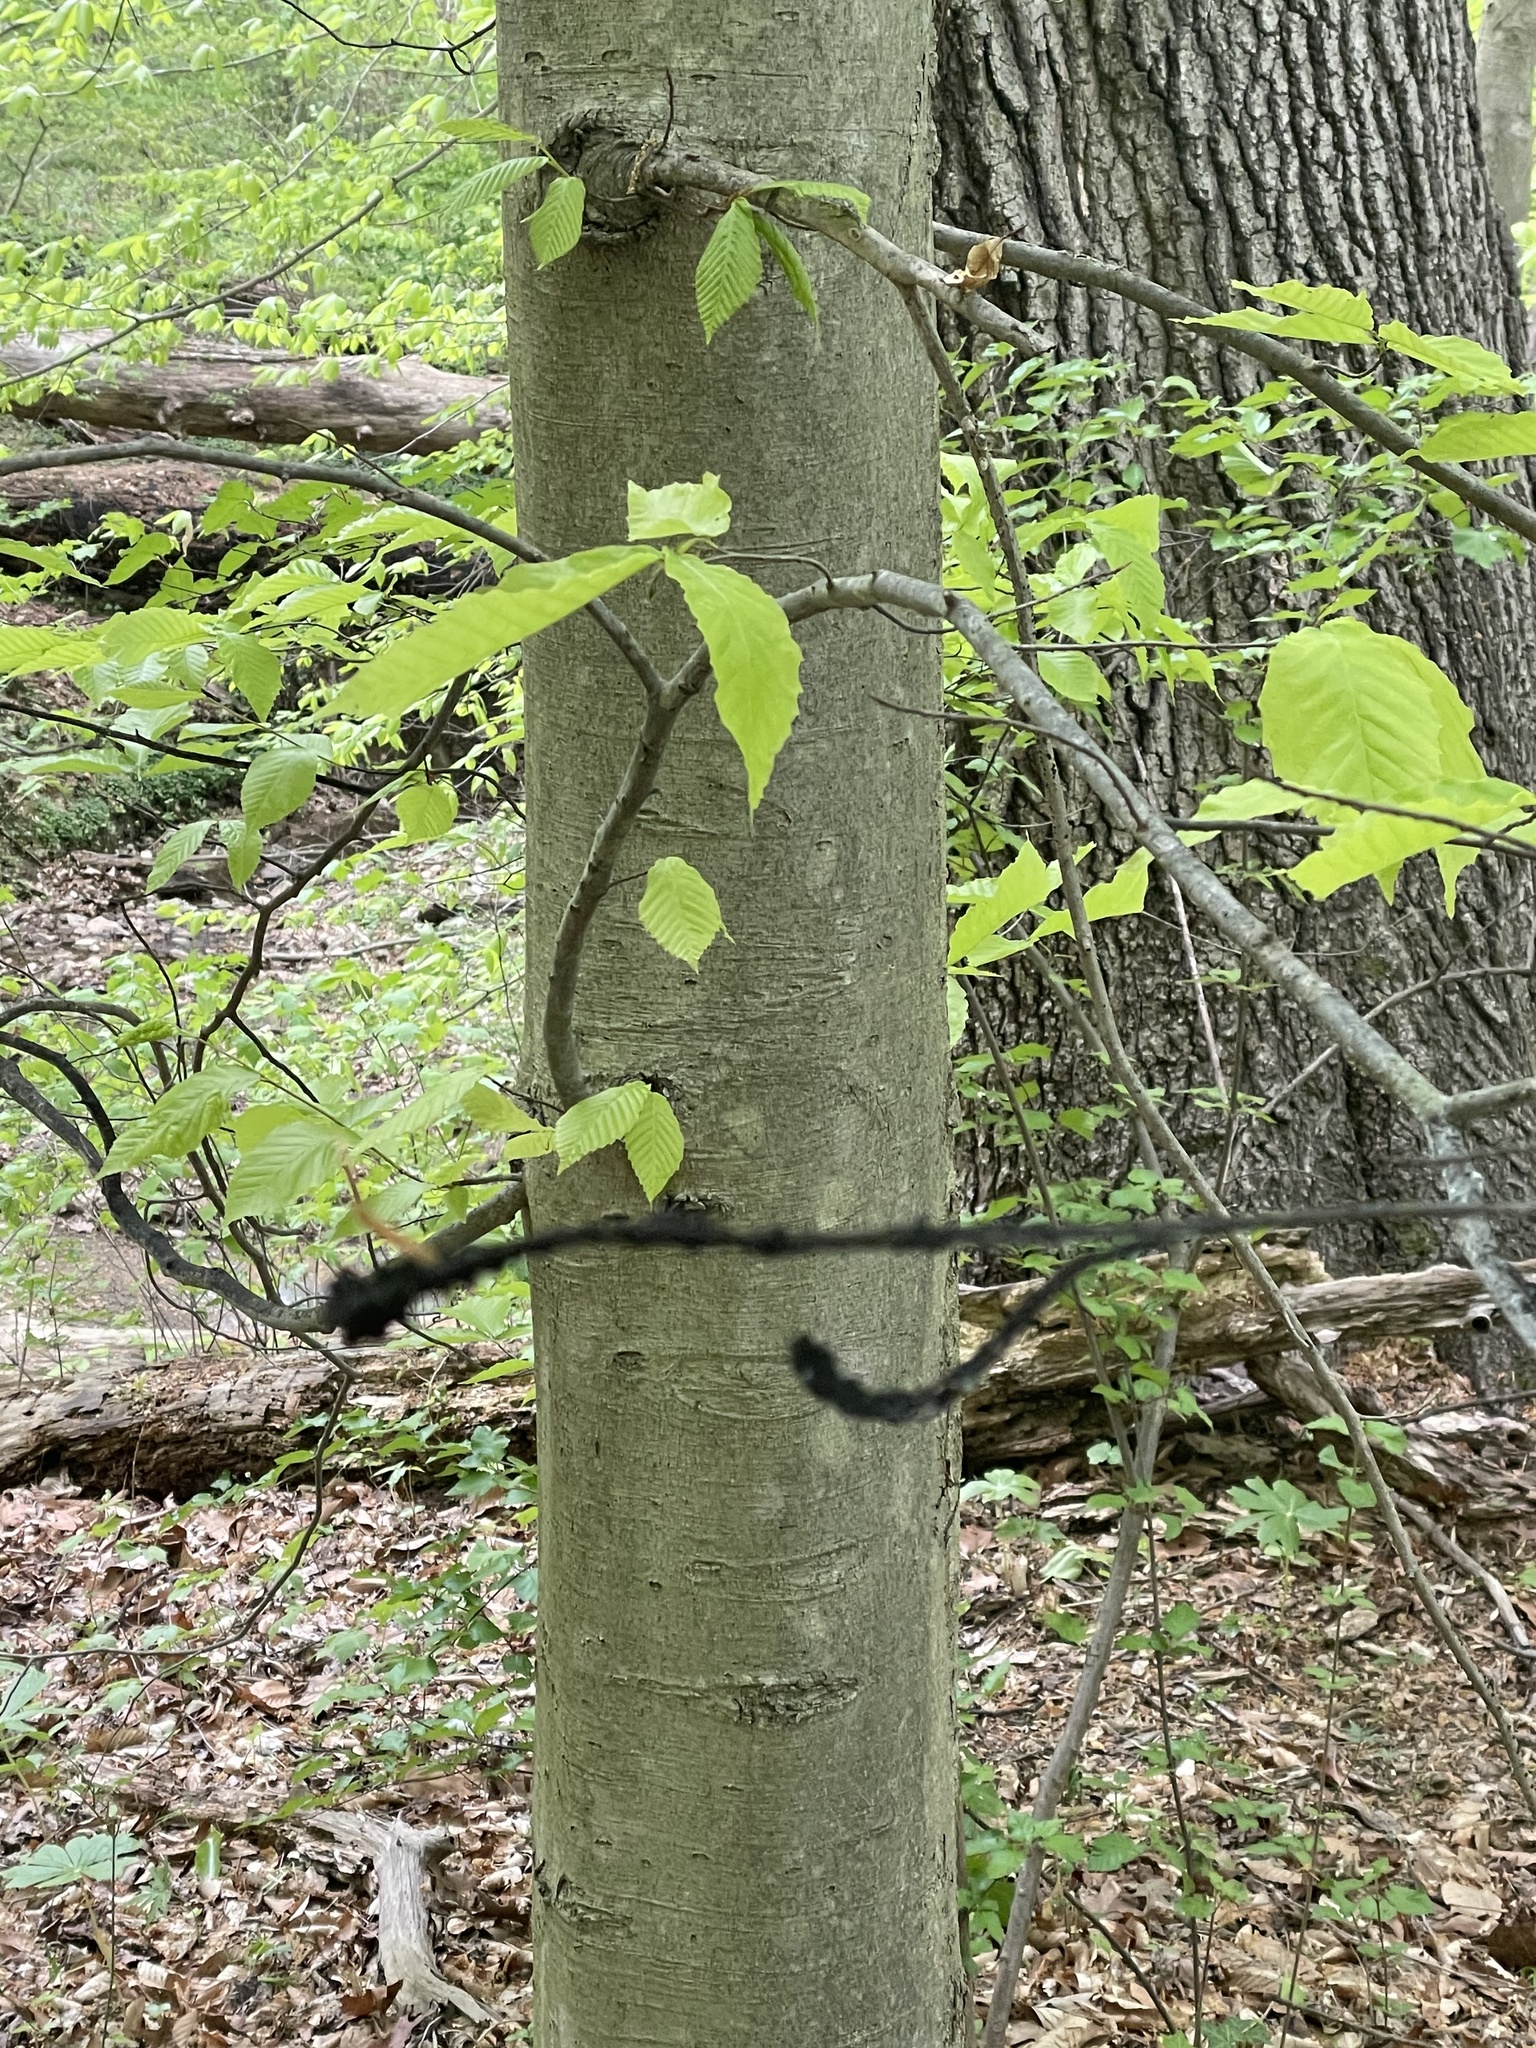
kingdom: Fungi
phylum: Ascomycota
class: Dothideomycetes
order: Capnodiales
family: Capnodiaceae
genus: Scorias
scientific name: Scorias spongiosa
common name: Black sooty mold
